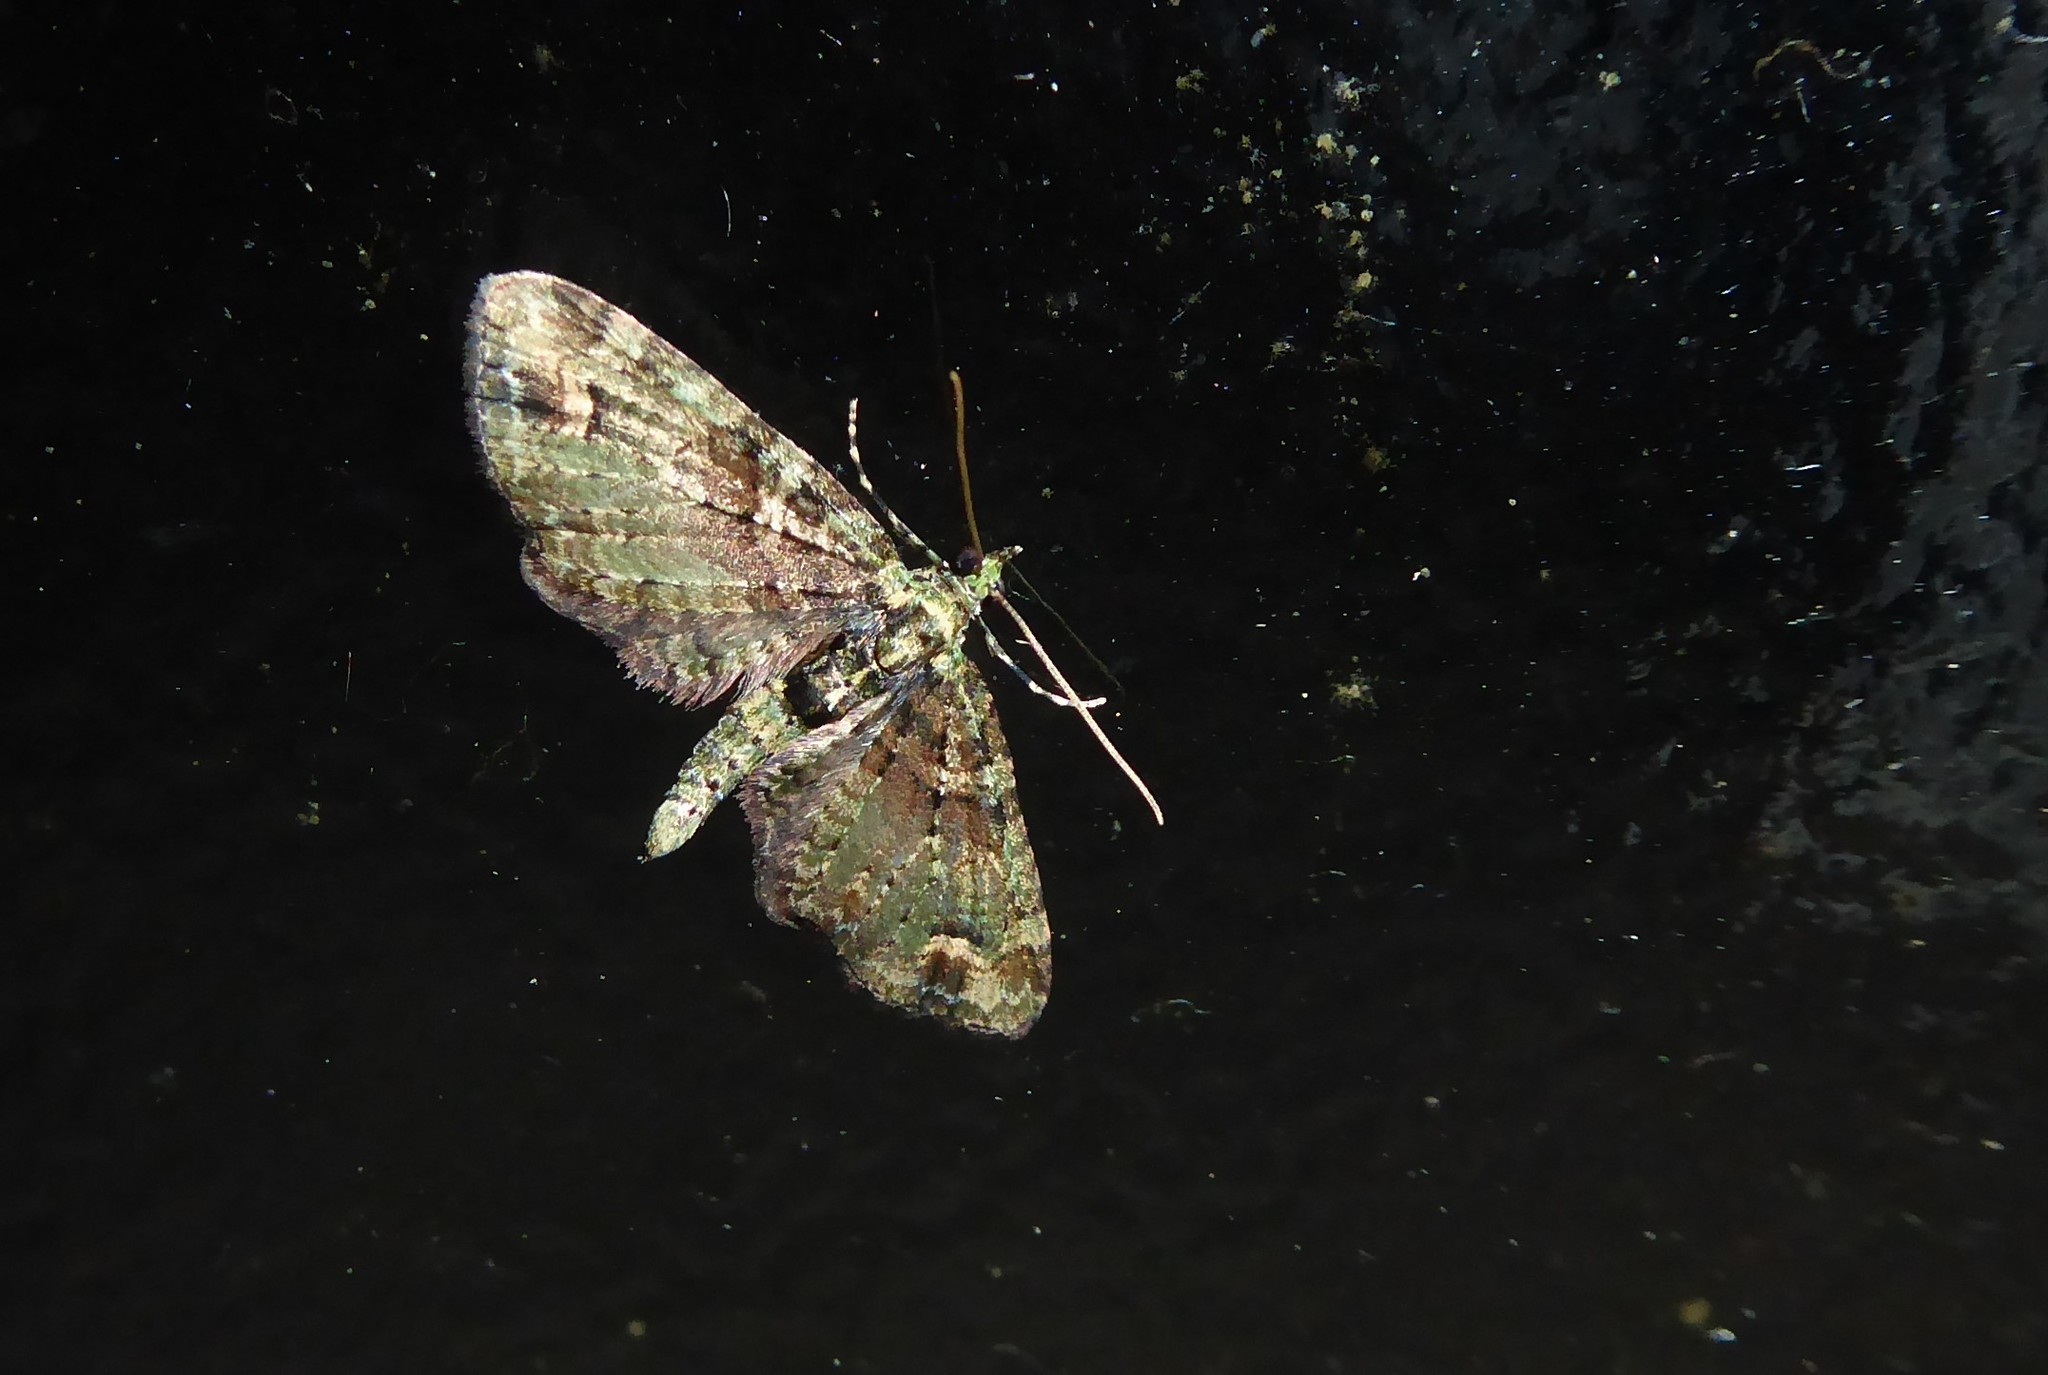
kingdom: Animalia
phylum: Arthropoda
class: Insecta
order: Lepidoptera
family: Geometridae
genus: Idaea
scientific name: Idaea mutanda
